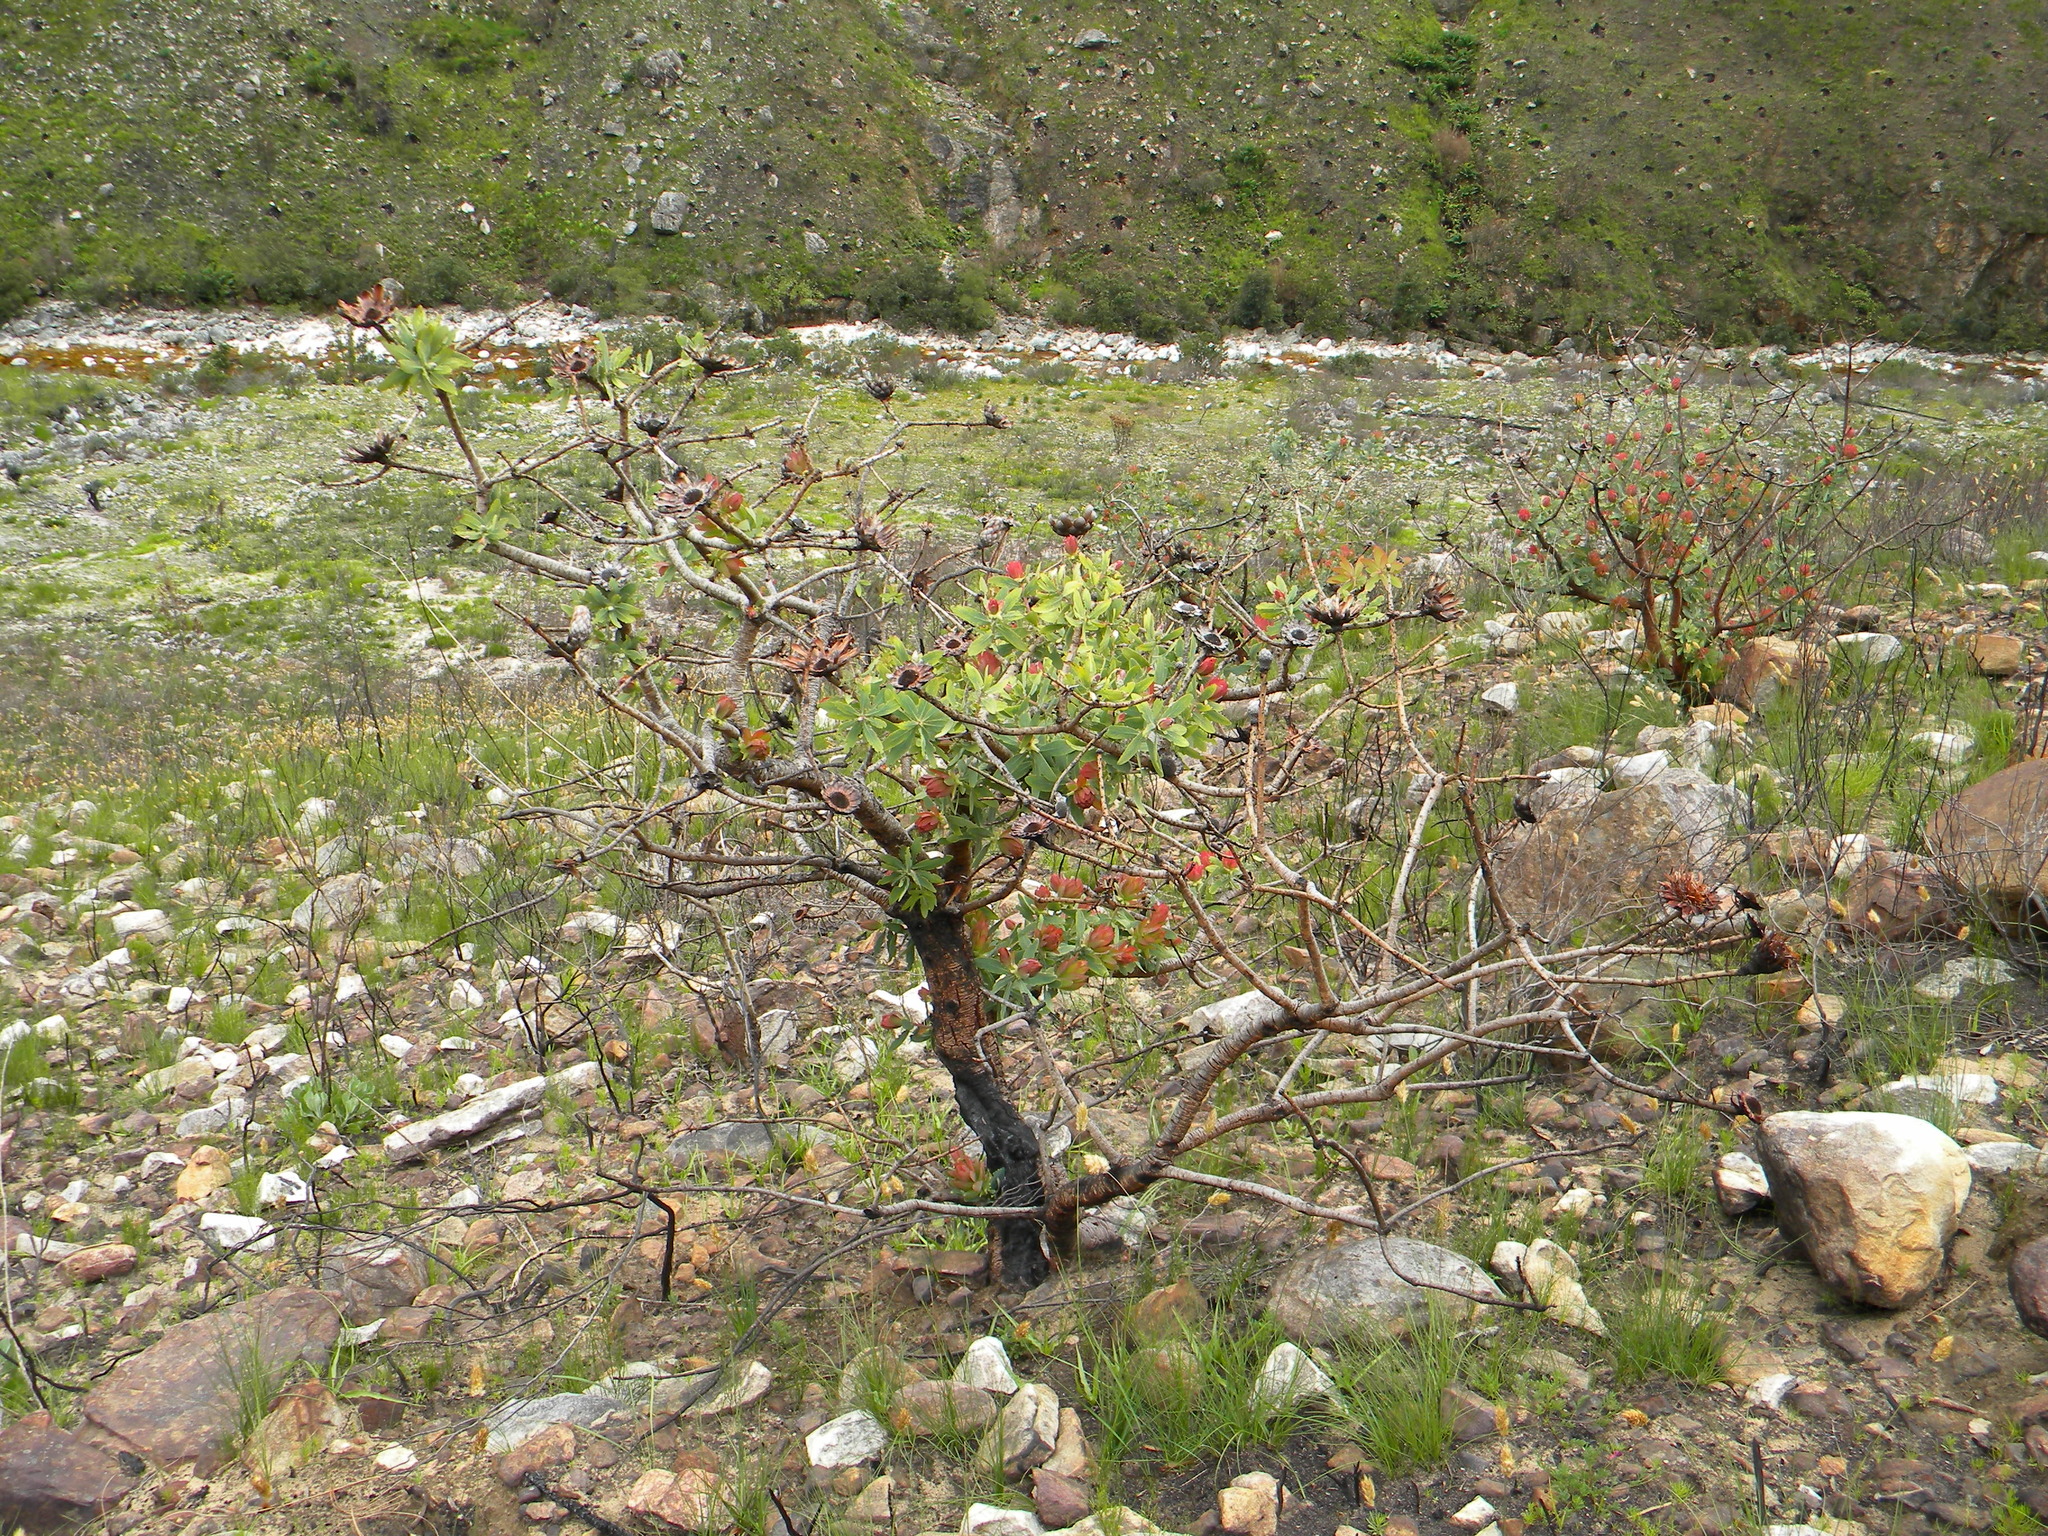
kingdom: Plantae
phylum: Tracheophyta
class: Magnoliopsida
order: Proteales
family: Proteaceae
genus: Protea
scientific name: Protea nitida
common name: Tree protea
